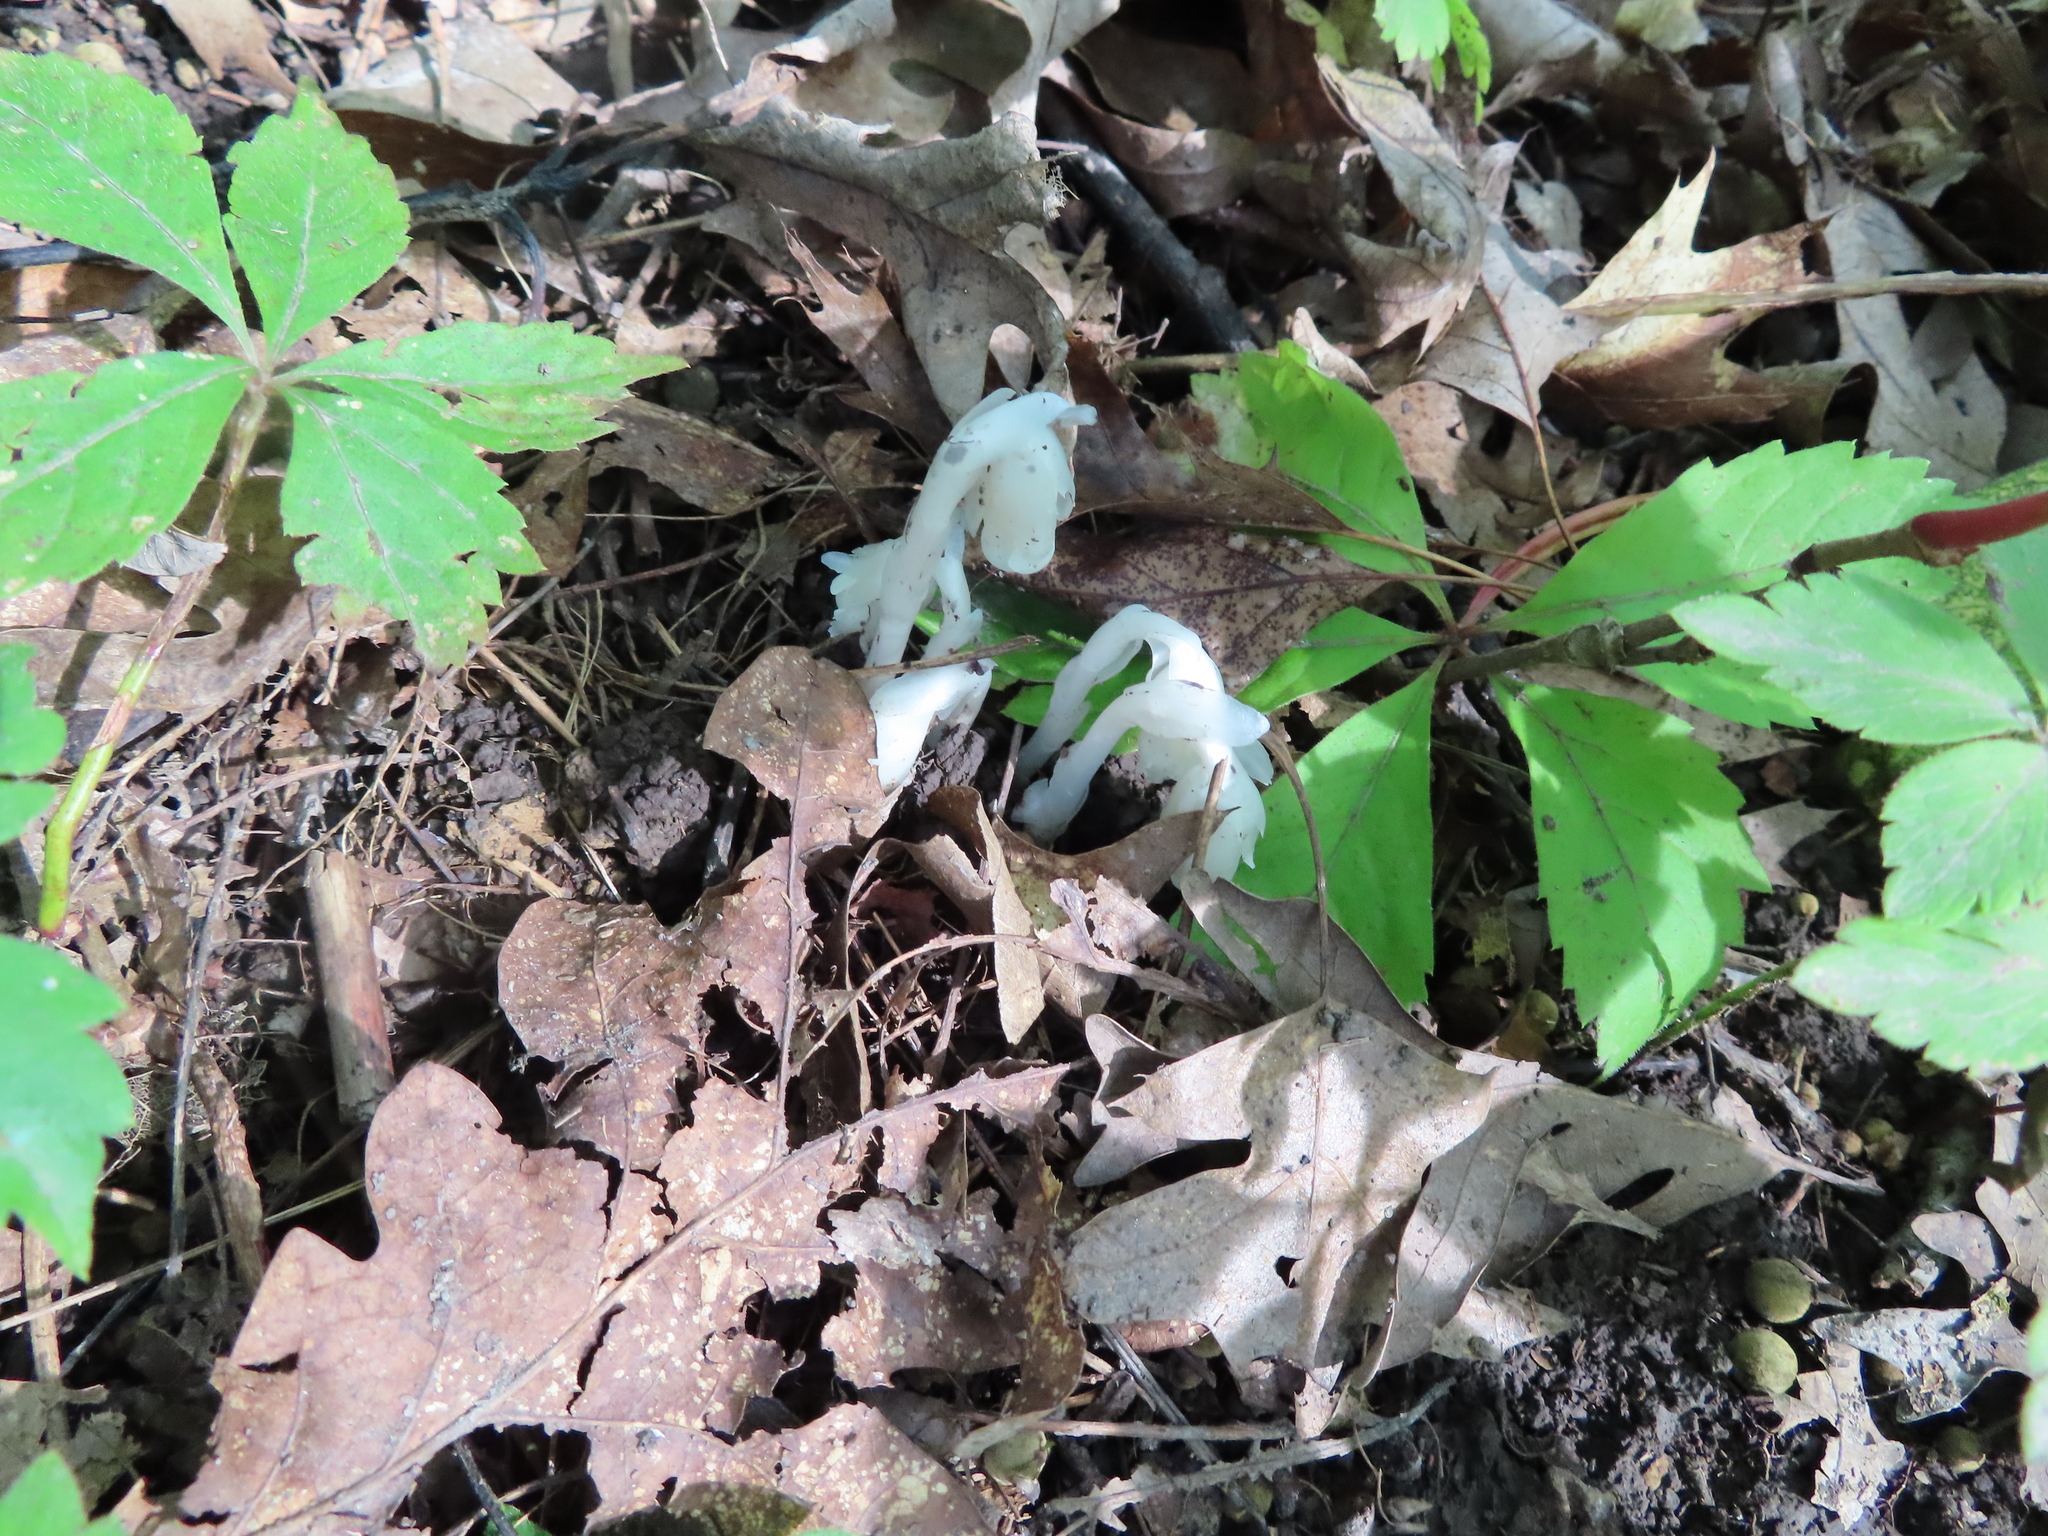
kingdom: Plantae
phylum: Tracheophyta
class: Magnoliopsida
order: Ericales
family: Ericaceae
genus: Monotropa
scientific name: Monotropa uniflora
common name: Convulsion root
